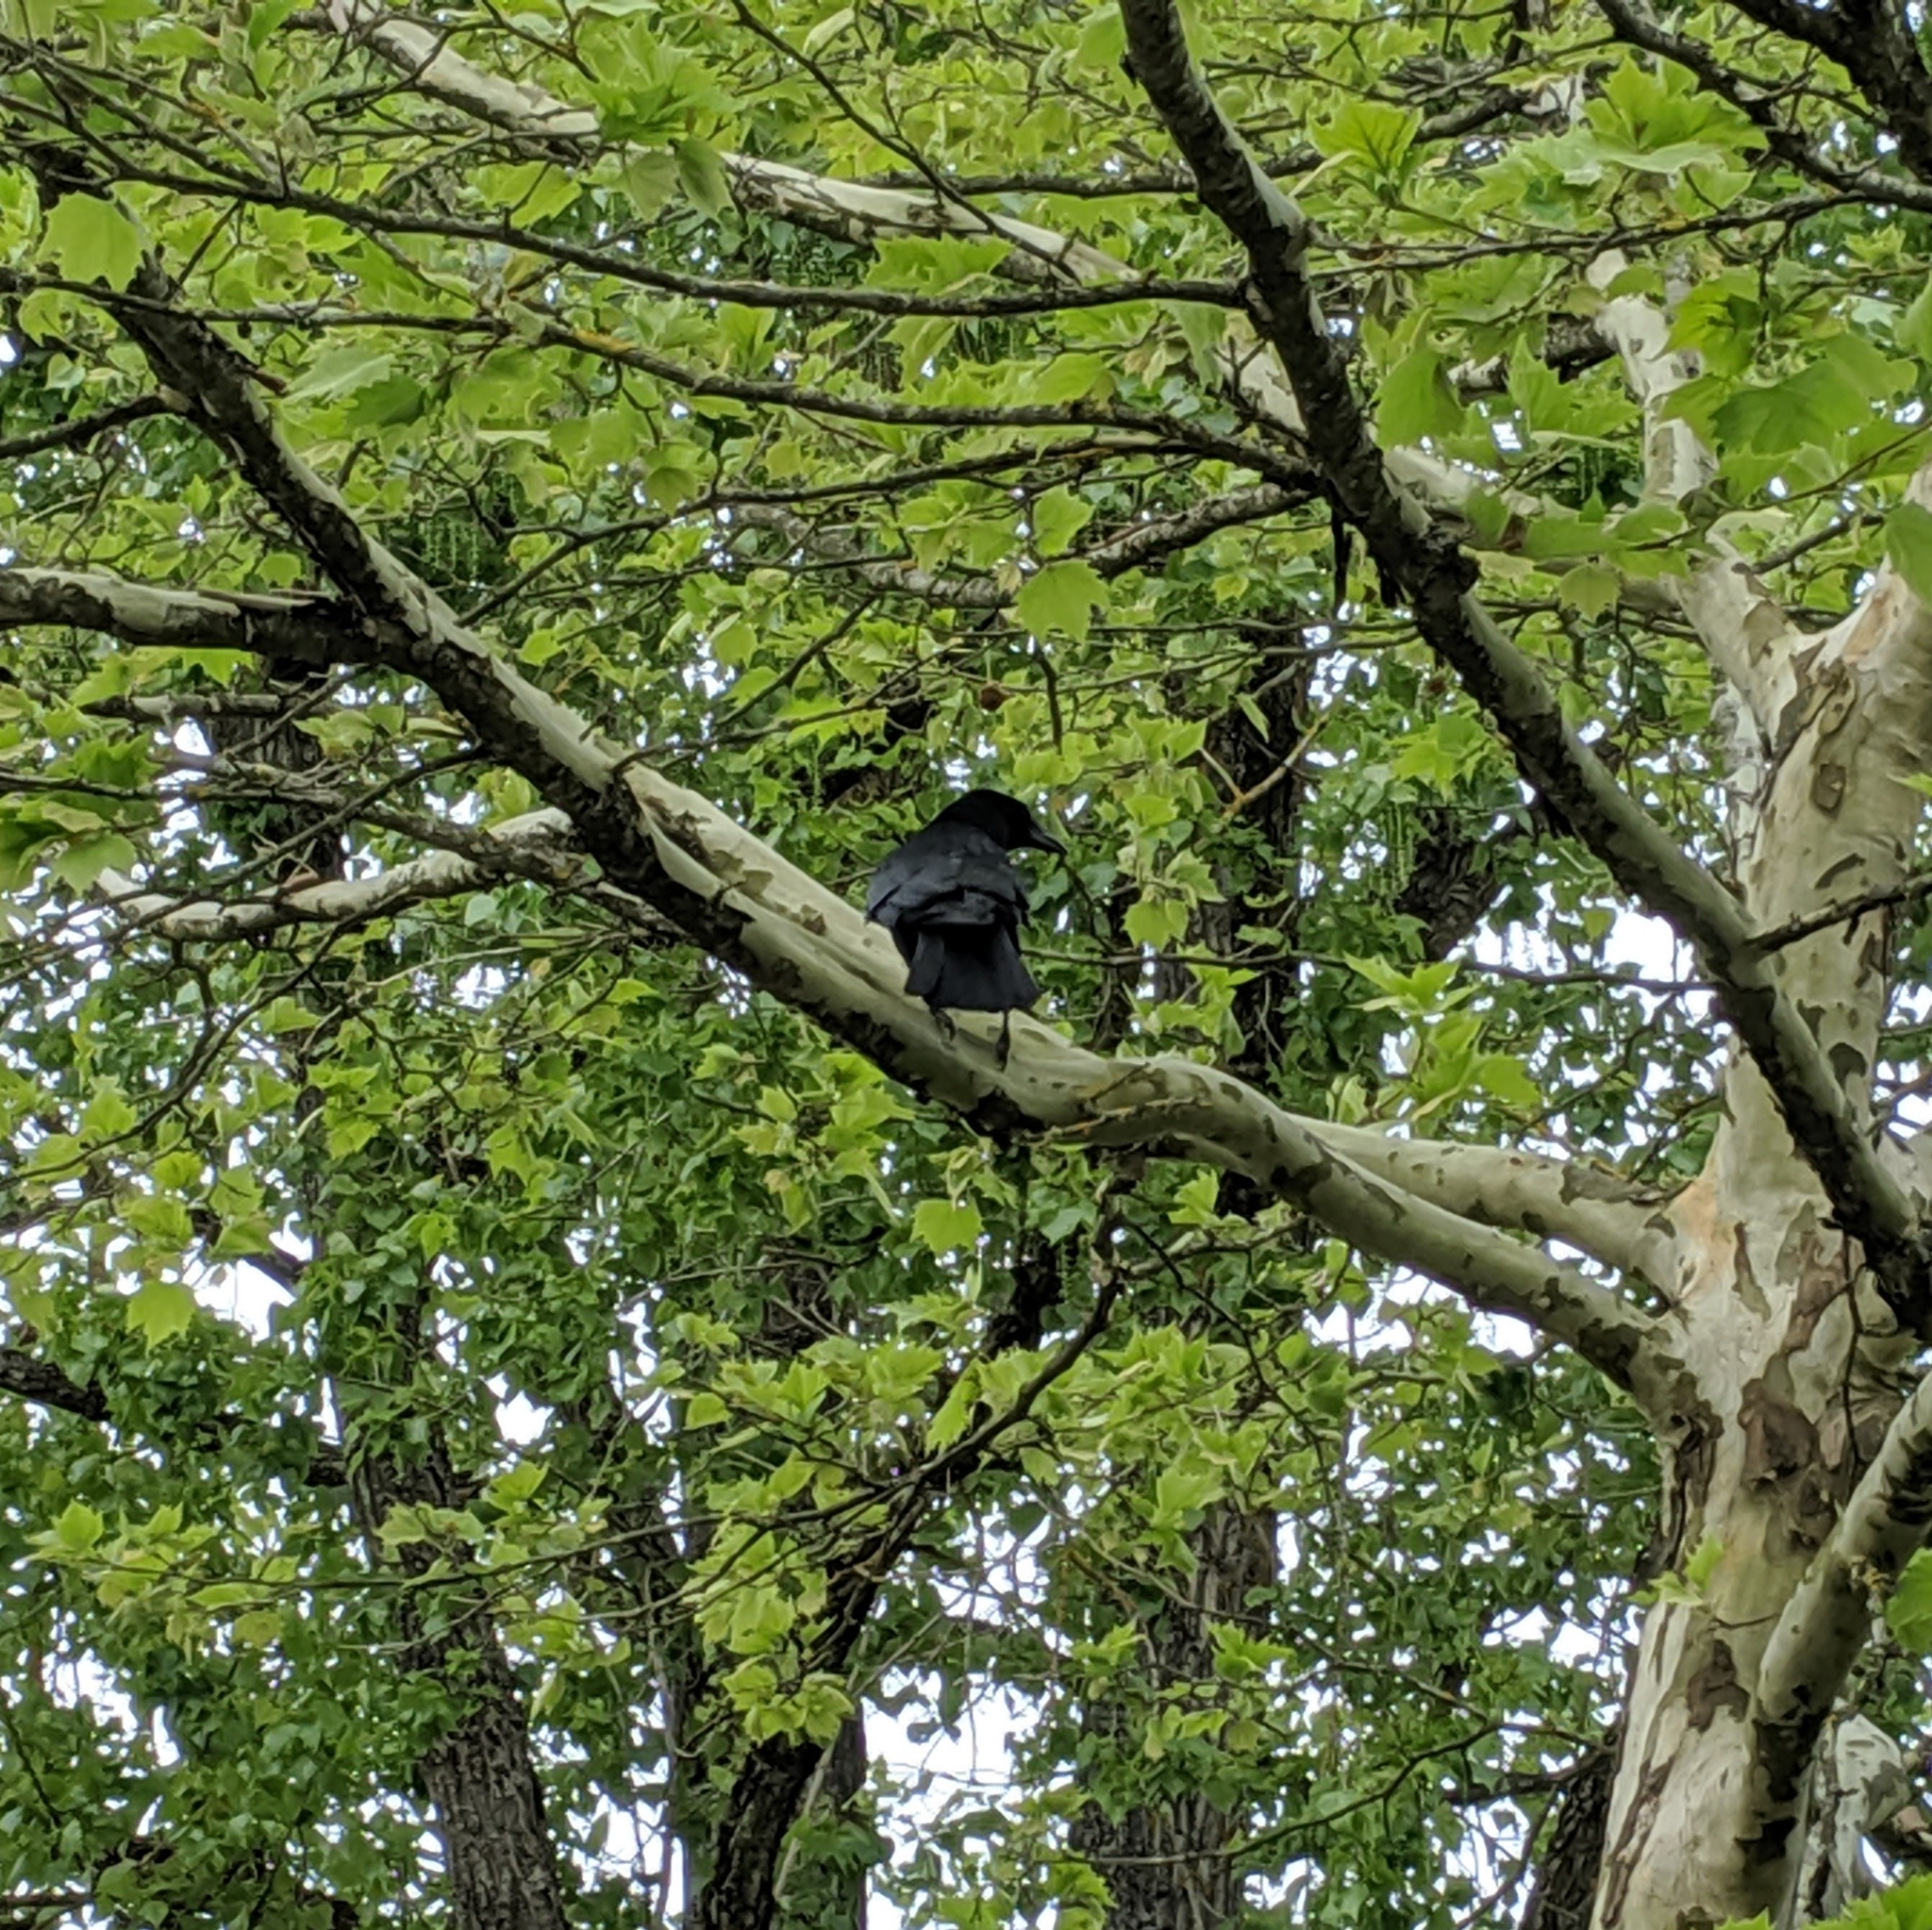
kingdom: Animalia
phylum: Chordata
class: Aves
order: Passeriformes
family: Corvidae
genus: Corvus
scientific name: Corvus corone
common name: Carrion crow
